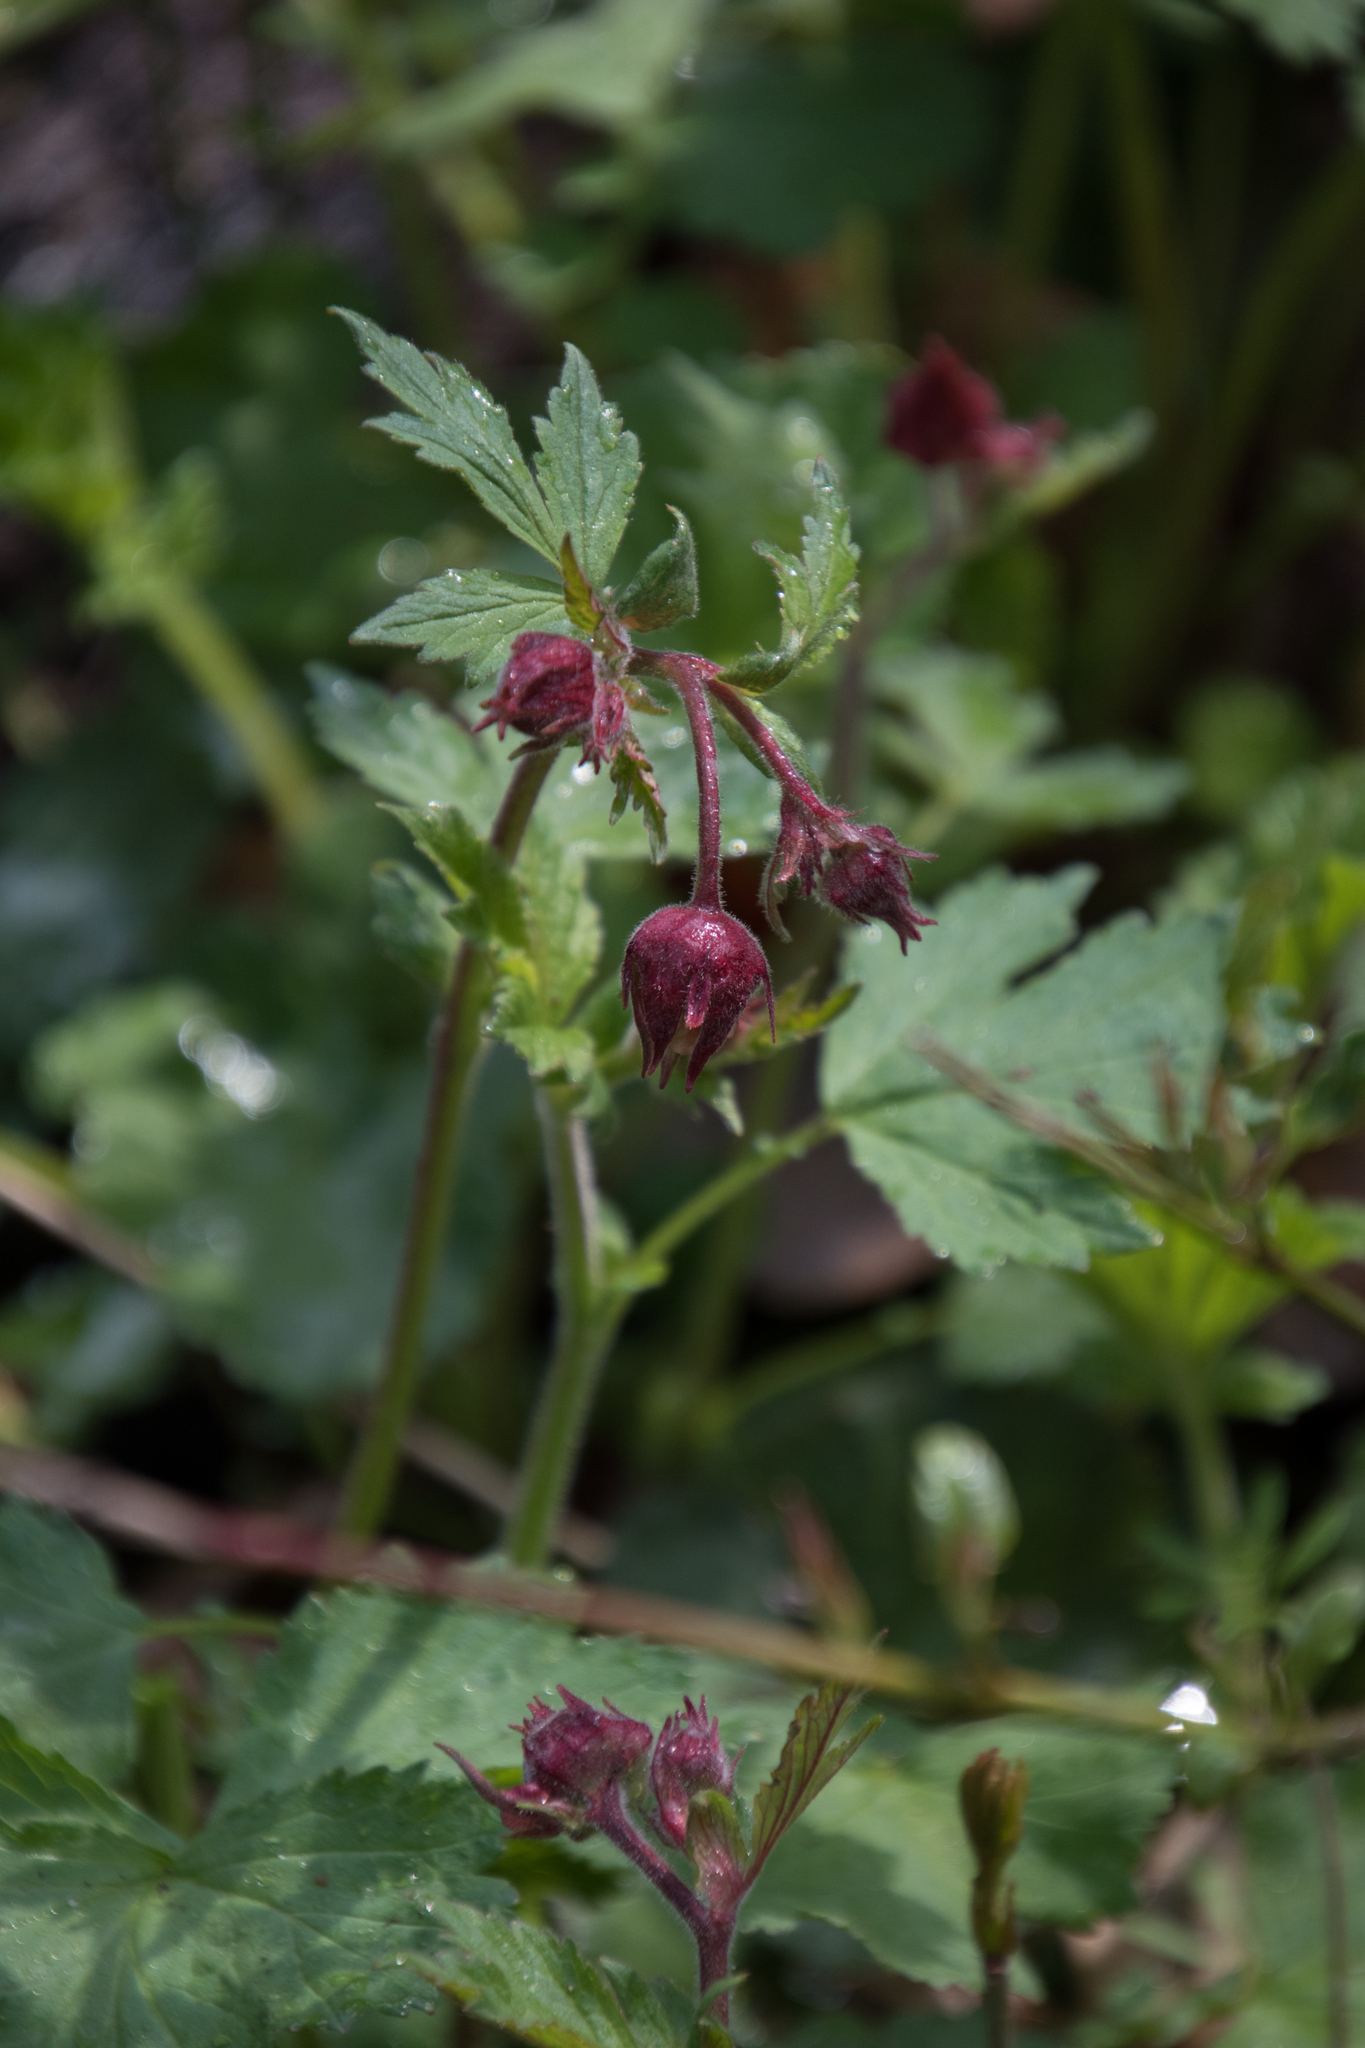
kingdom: Plantae
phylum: Tracheophyta
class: Magnoliopsida
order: Rosales
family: Rosaceae
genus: Geum
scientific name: Geum rivale
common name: Water avens
